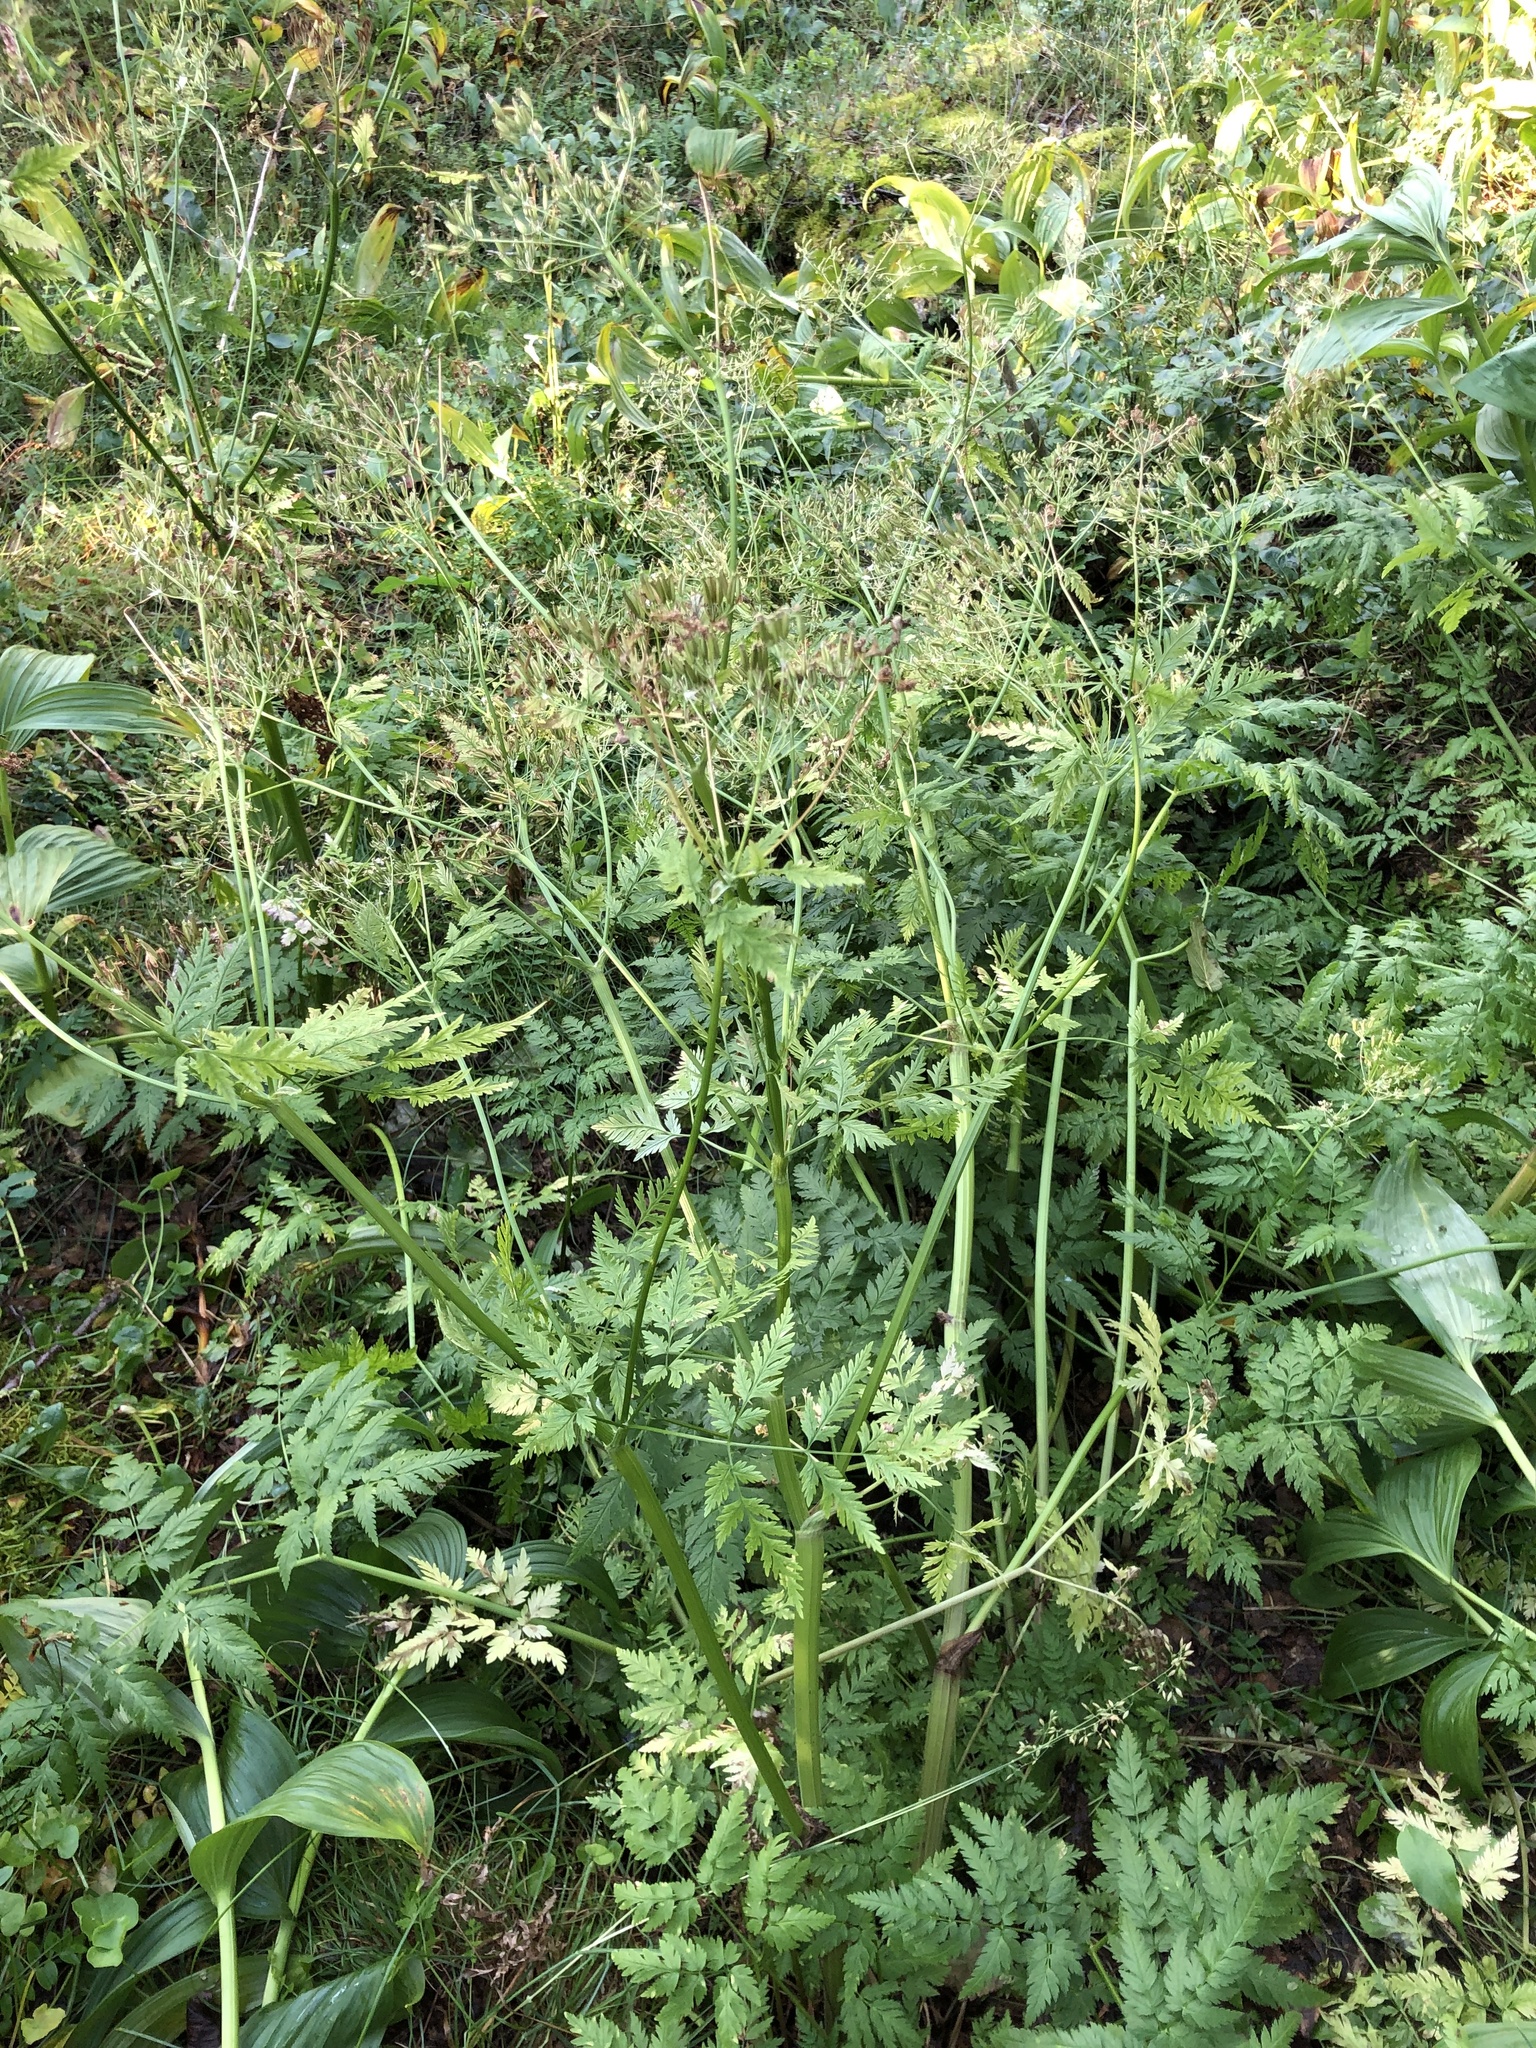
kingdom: Plantae
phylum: Tracheophyta
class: Magnoliopsida
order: Apiales
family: Apiaceae
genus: Anthriscus
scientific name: Anthriscus sylvestris
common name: Cow parsley
